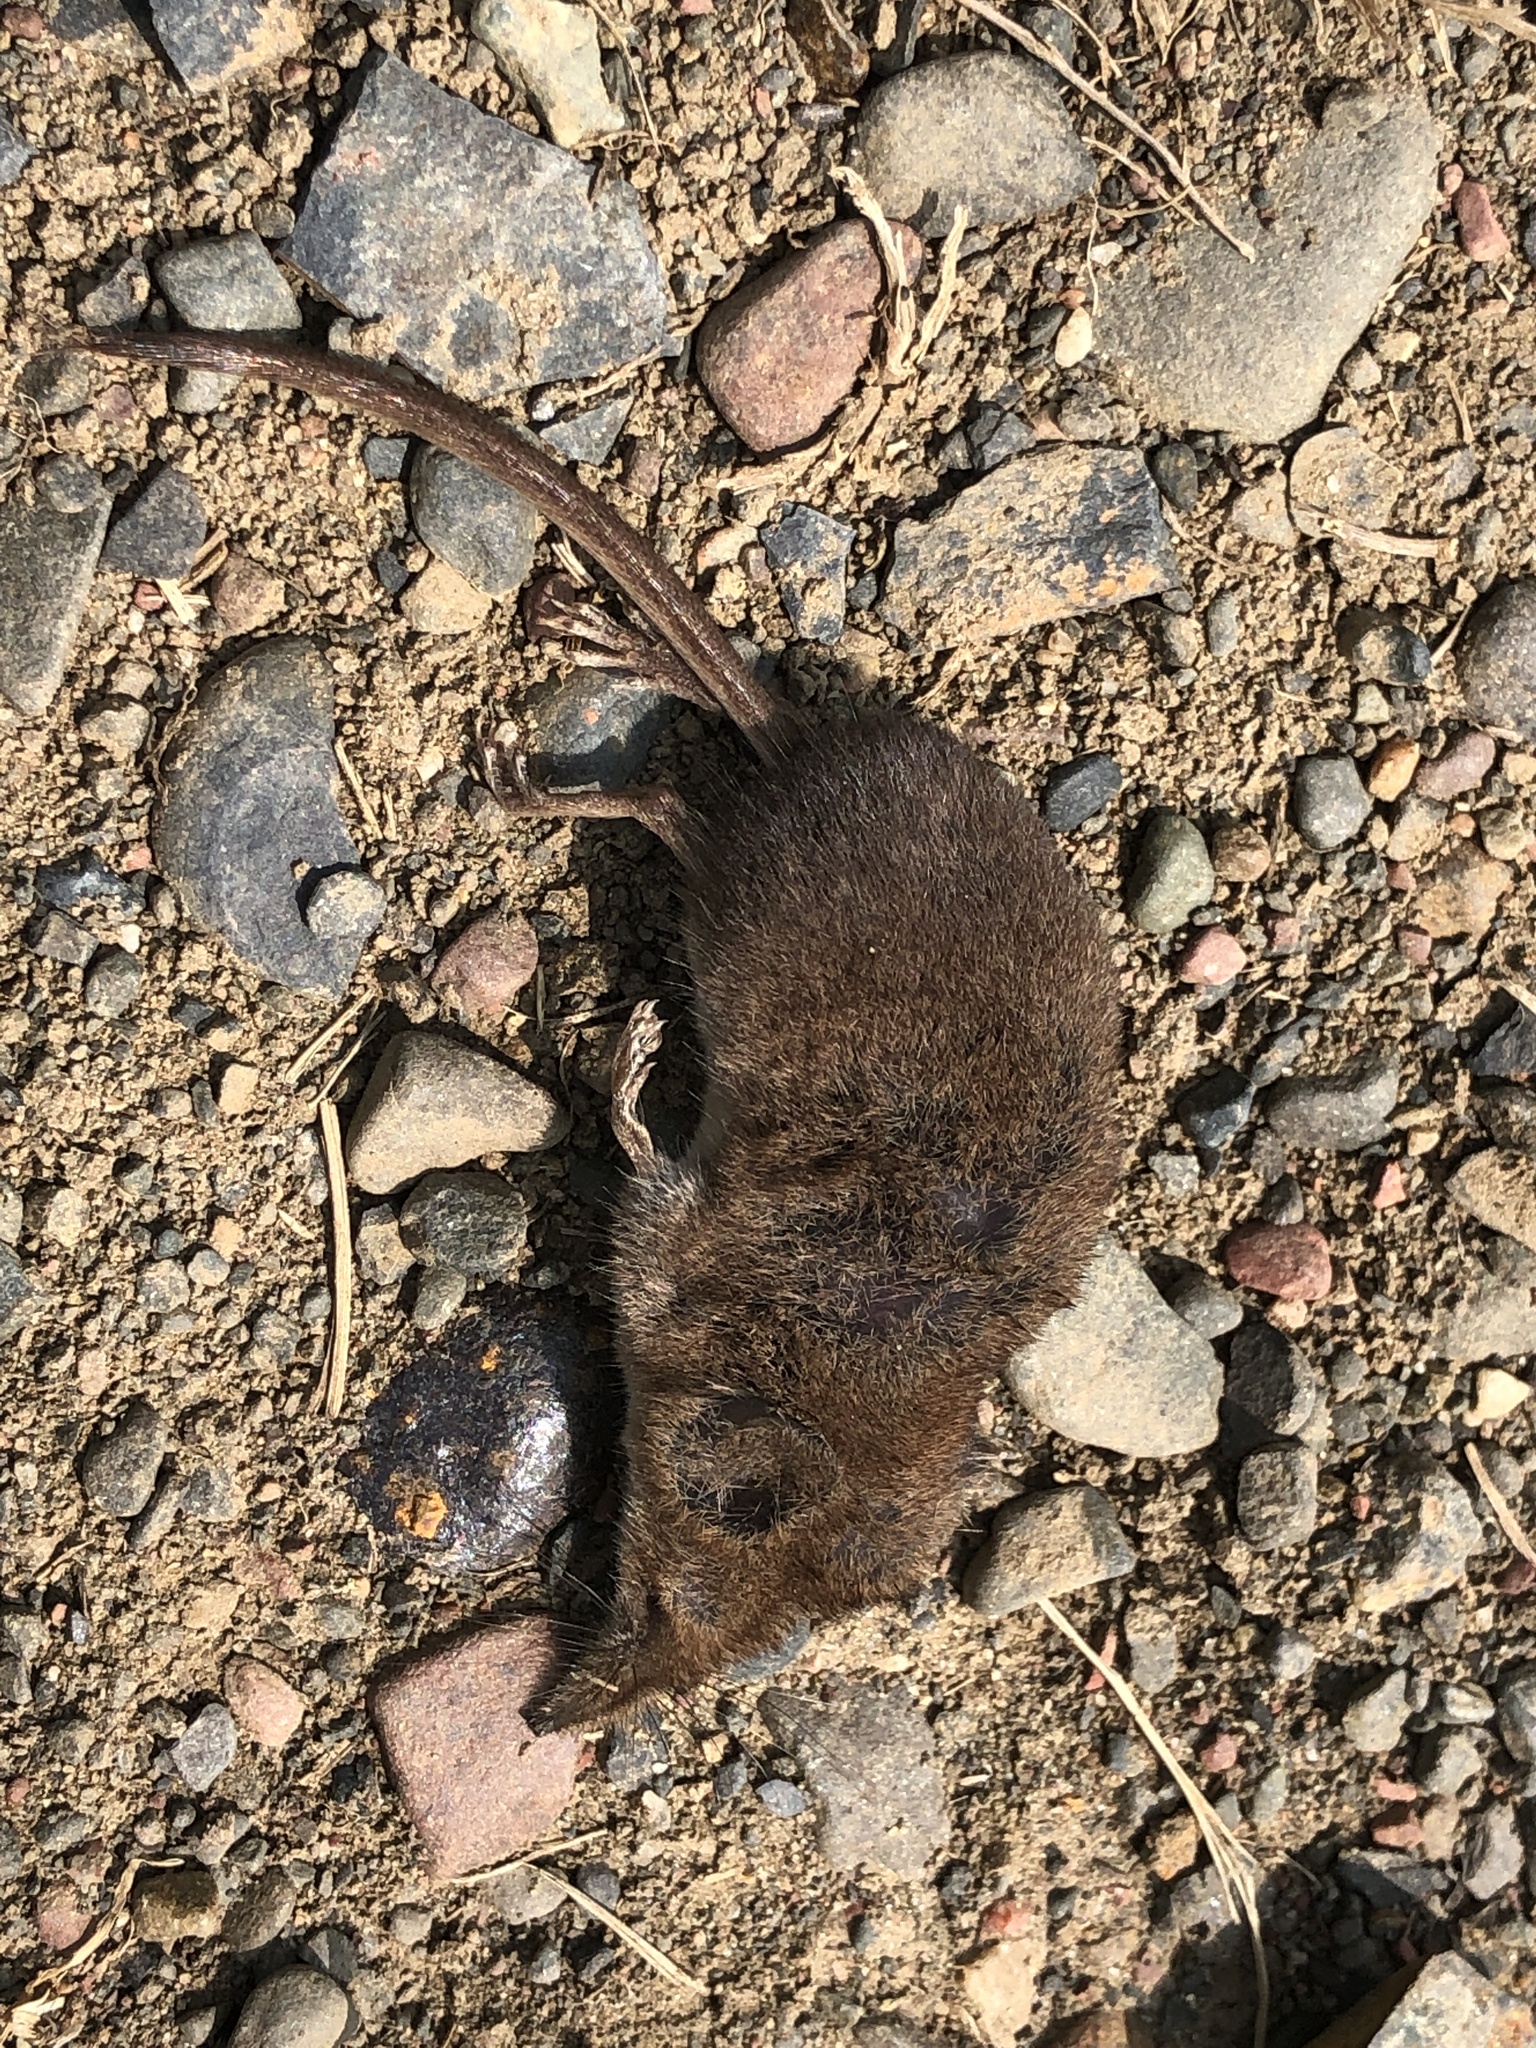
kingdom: Animalia
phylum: Chordata
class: Mammalia
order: Soricomorpha
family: Soricidae
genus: Sorex
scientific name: Sorex cinereus
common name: Cinereus shrew
